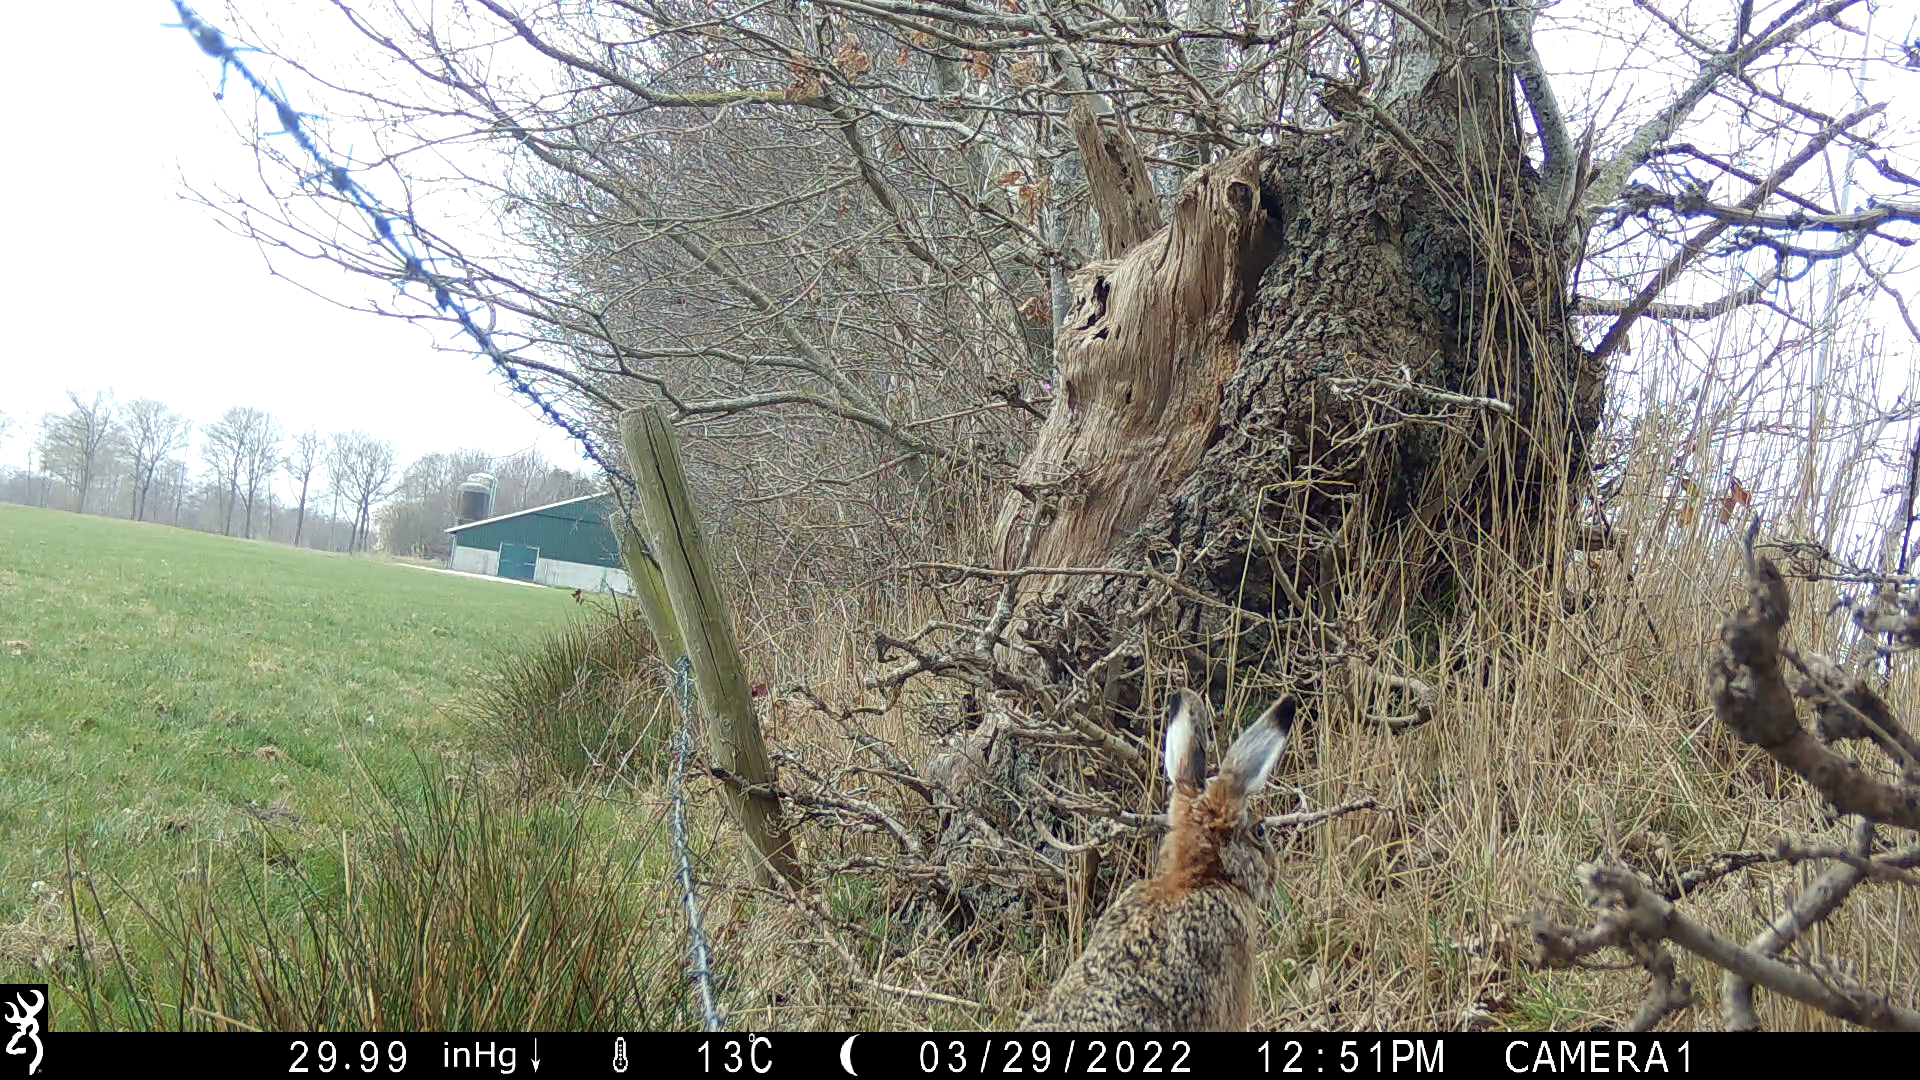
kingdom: Animalia
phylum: Chordata
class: Mammalia
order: Lagomorpha
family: Leporidae
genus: Lepus
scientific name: Lepus europaeus
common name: European hare
